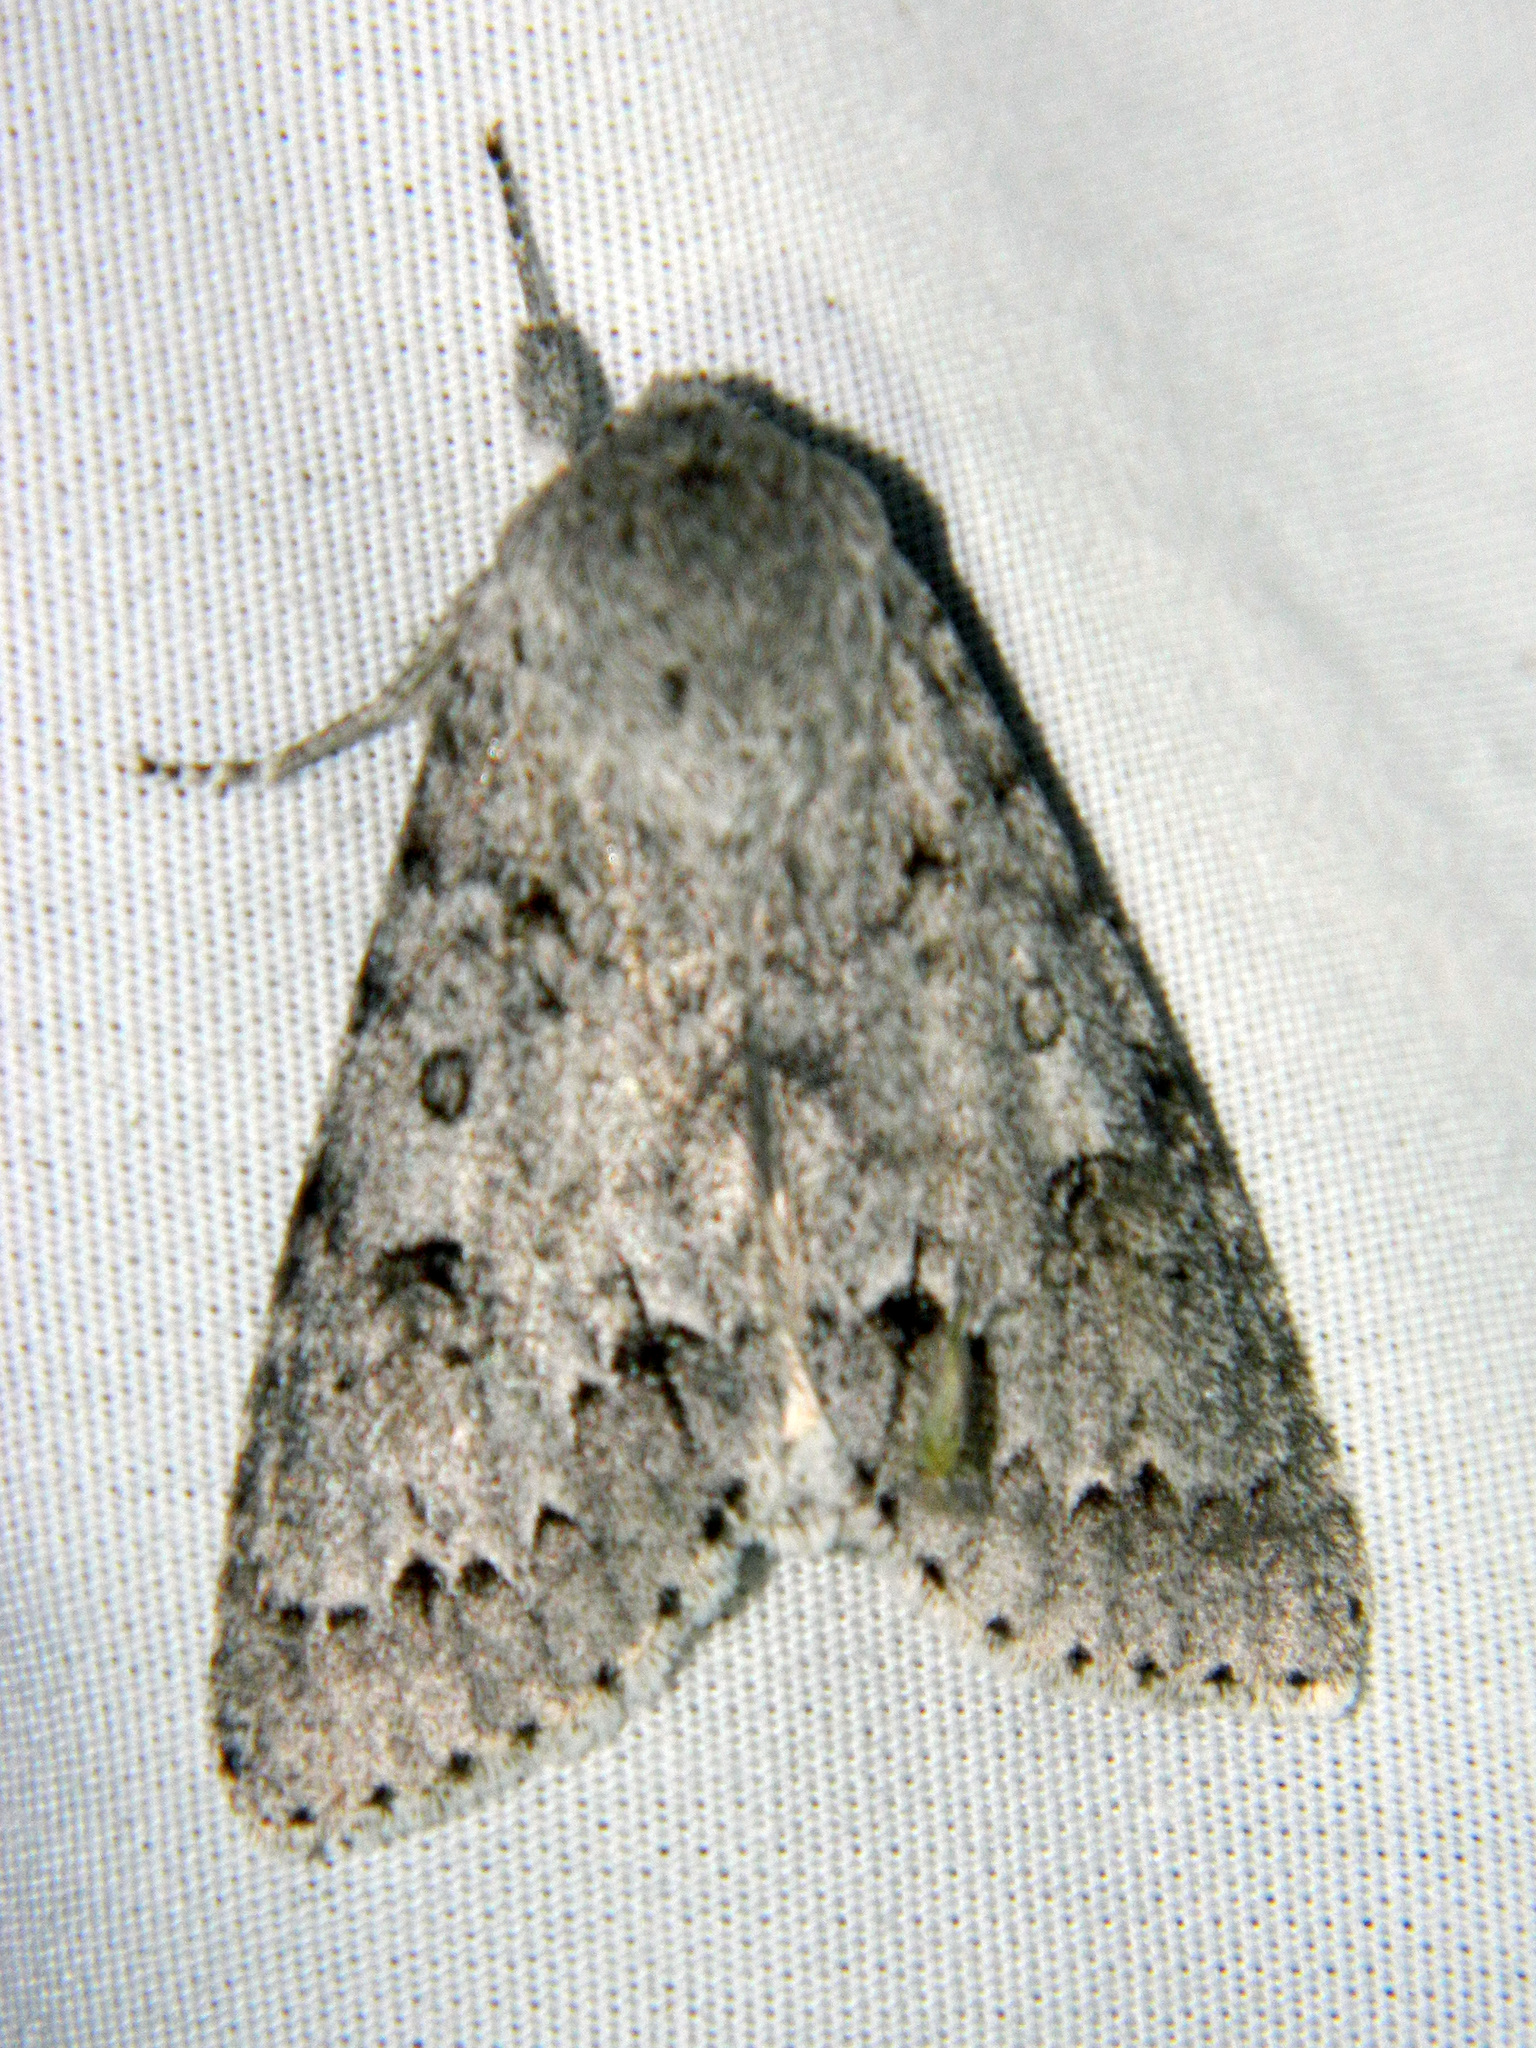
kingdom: Animalia
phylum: Arthropoda
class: Insecta
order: Lepidoptera
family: Noctuidae
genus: Acronicta
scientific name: Acronicta insita
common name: Large gray dagger
